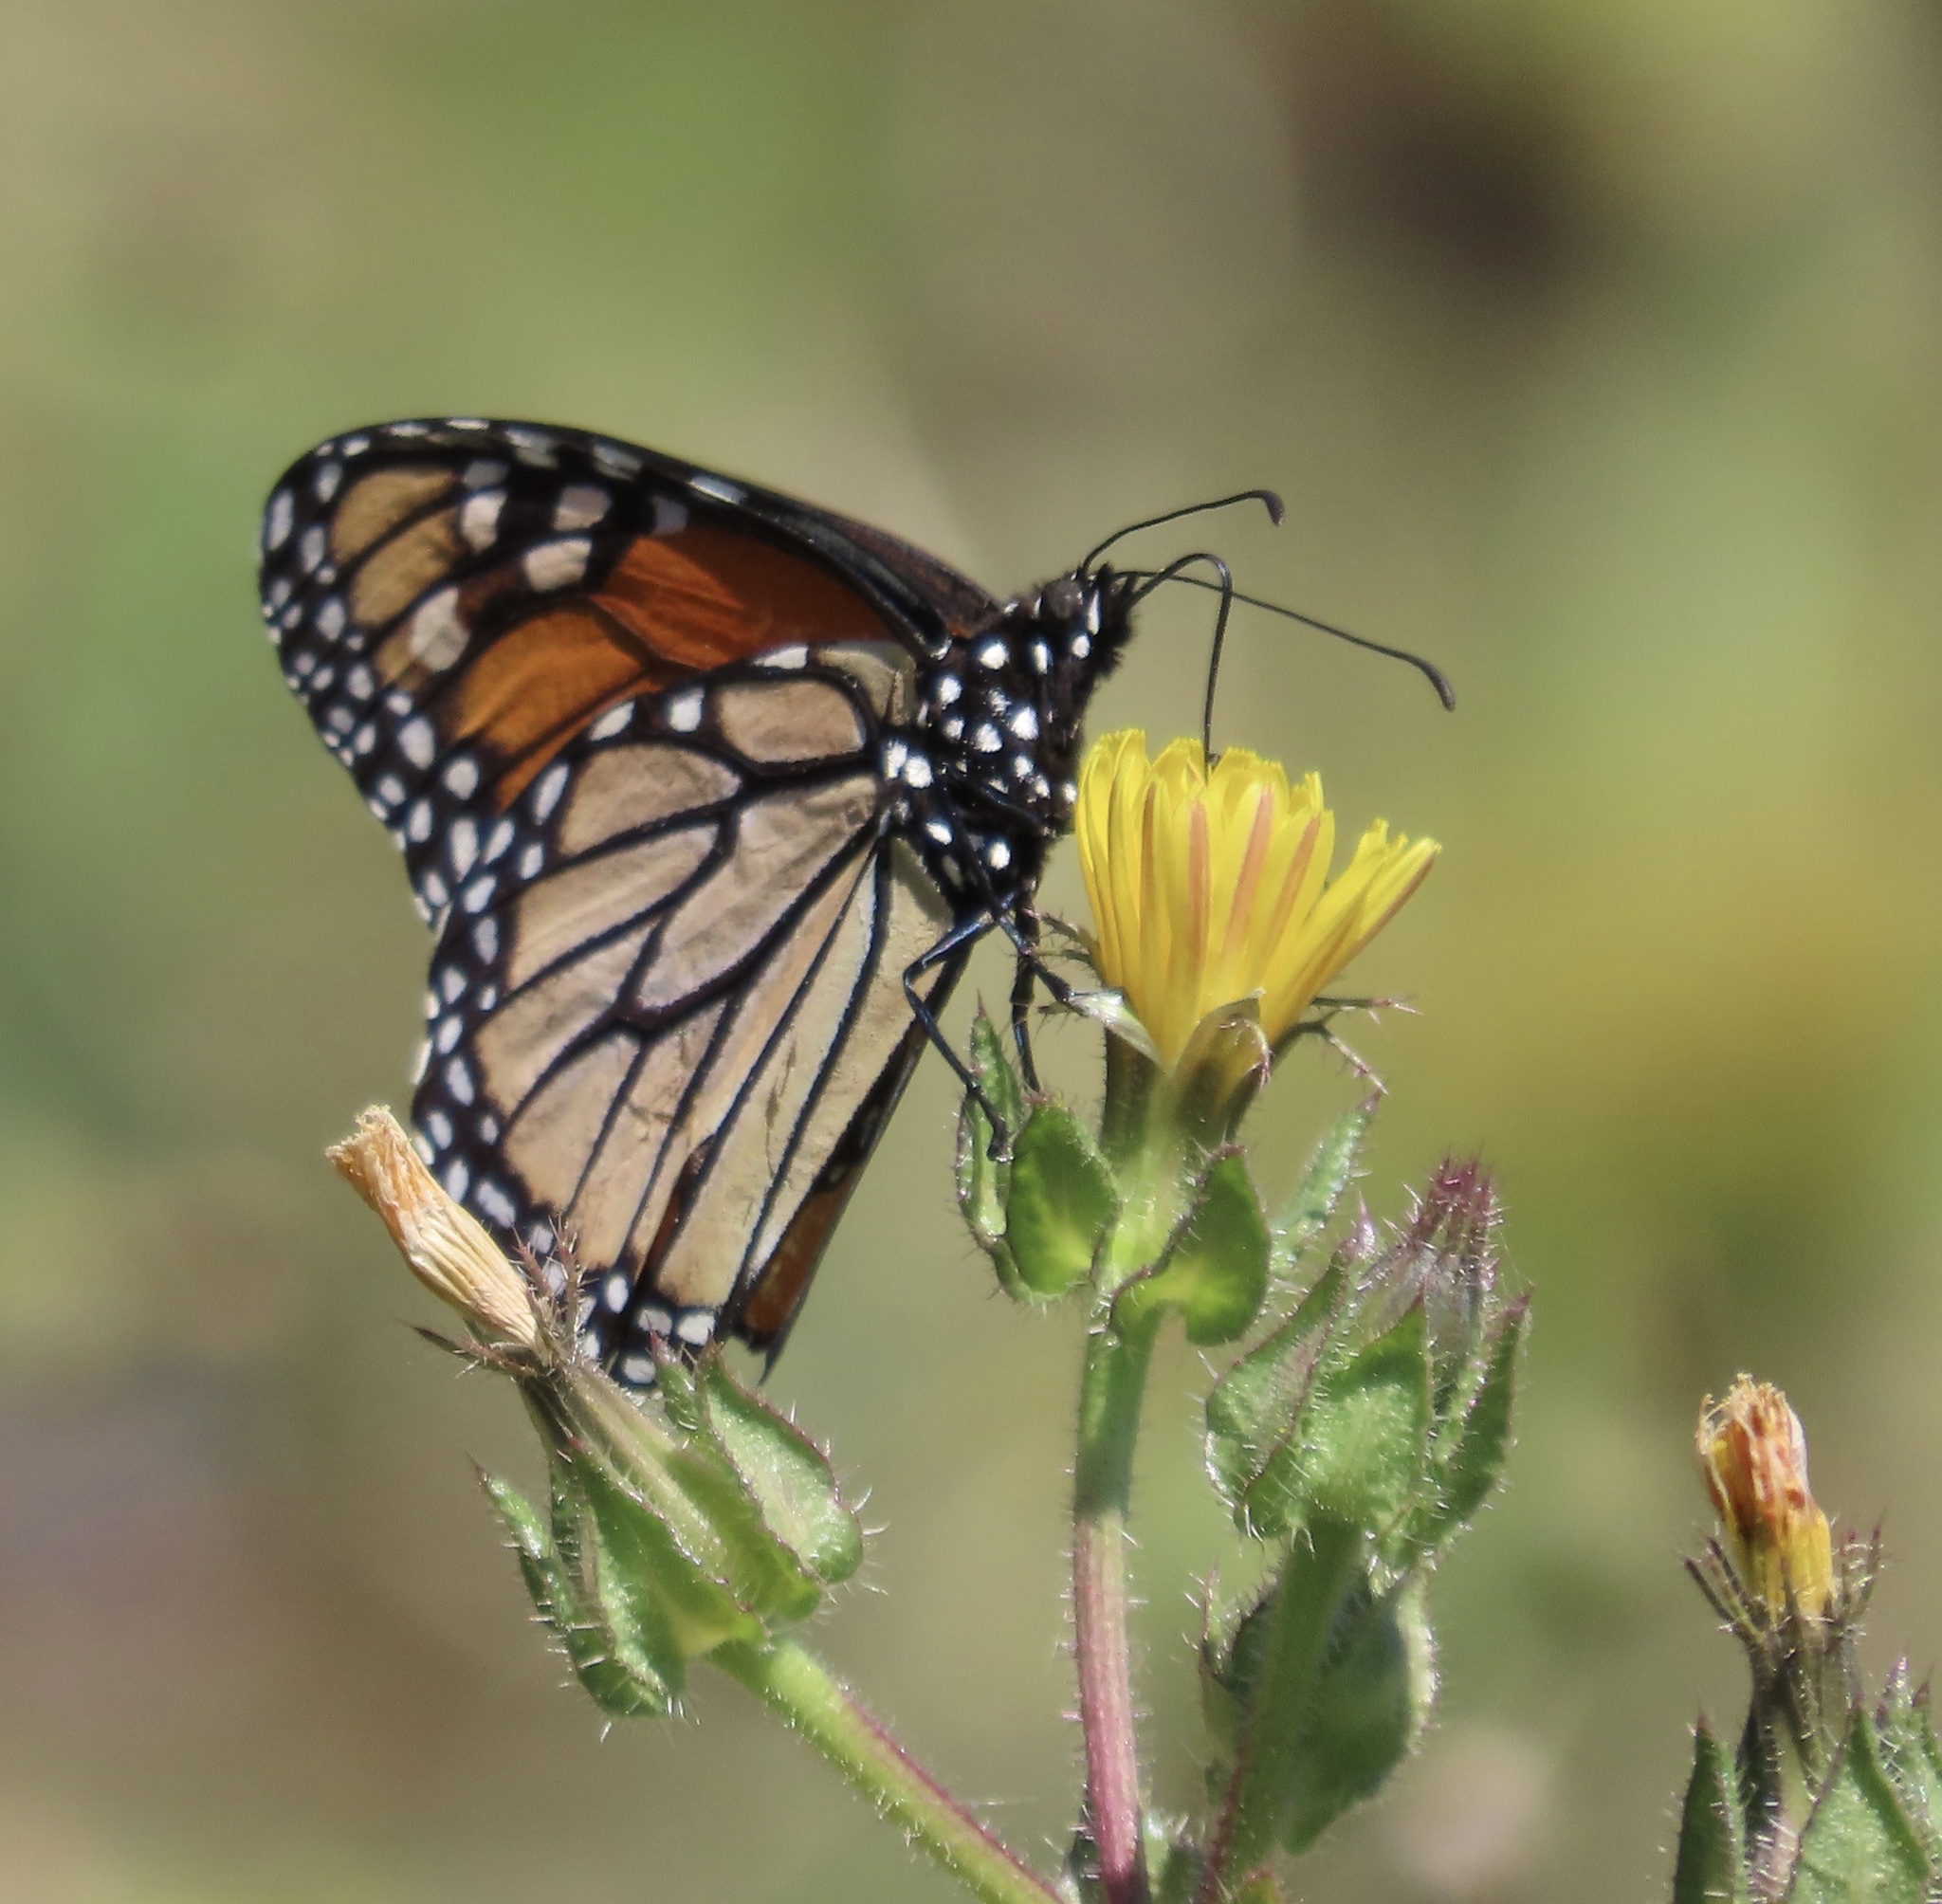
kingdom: Animalia
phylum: Arthropoda
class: Insecta
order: Lepidoptera
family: Nymphalidae
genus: Danaus
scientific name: Danaus plexippus
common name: Monarch
